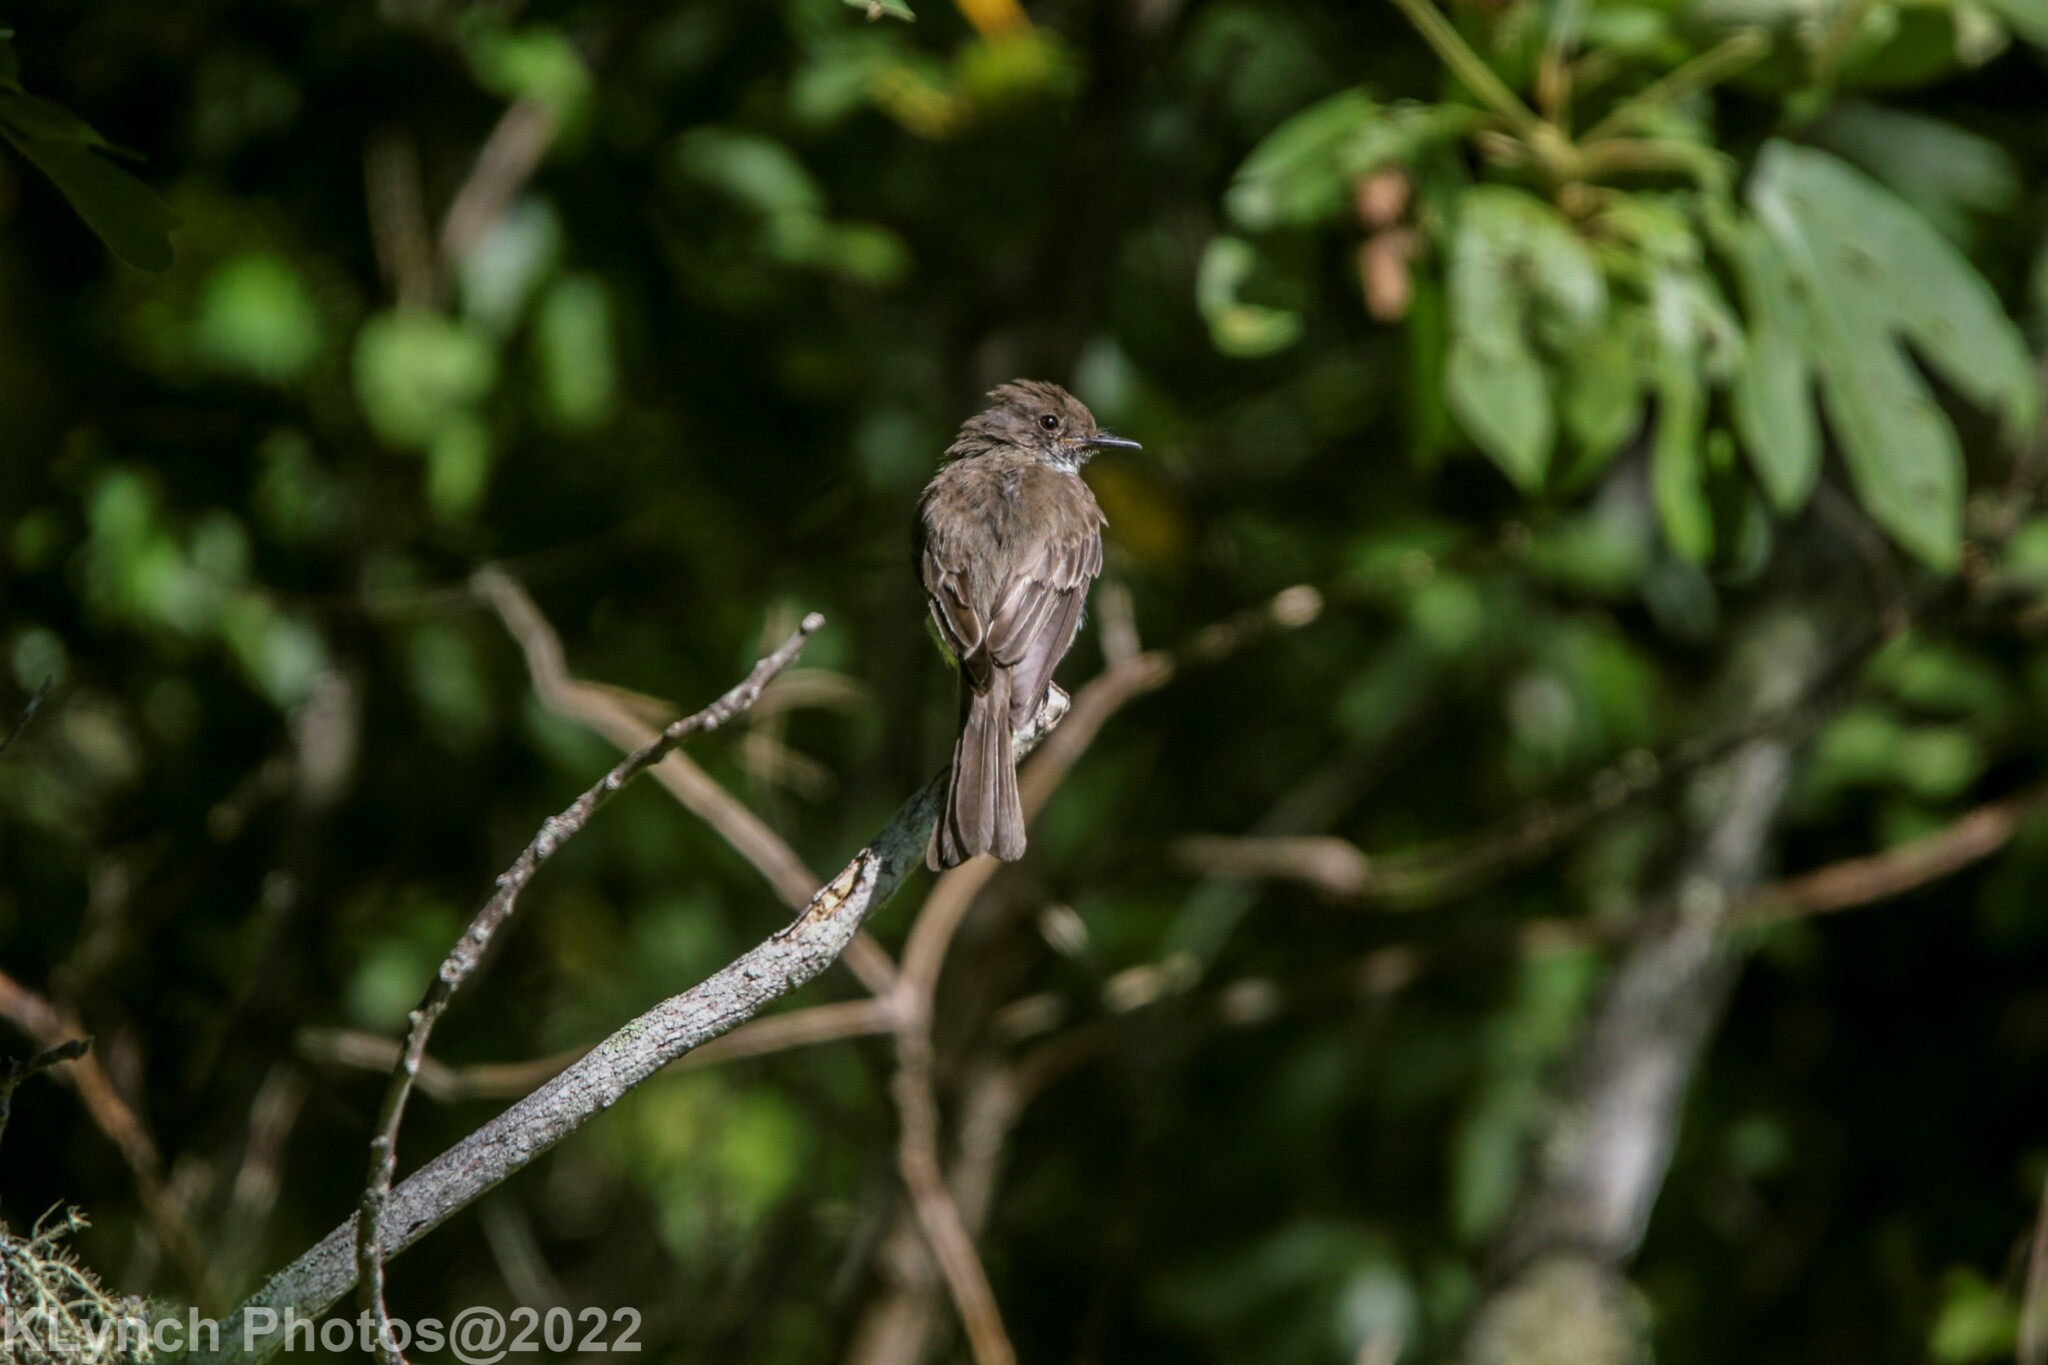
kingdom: Animalia
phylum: Chordata
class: Aves
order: Passeriformes
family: Tyrannidae
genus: Sayornis
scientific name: Sayornis phoebe
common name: Eastern phoebe
